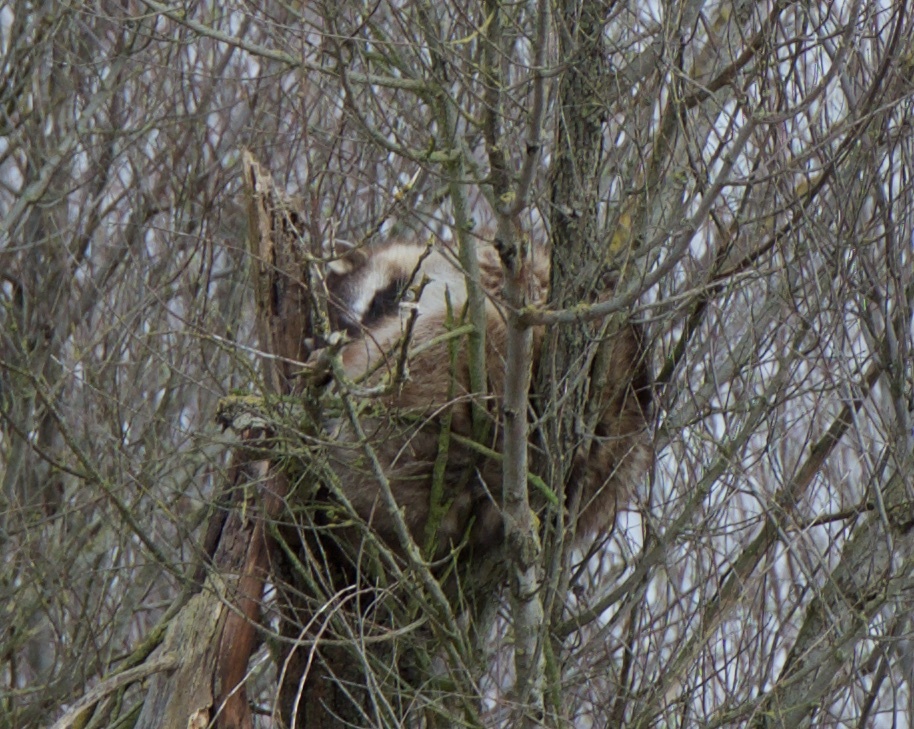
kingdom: Animalia
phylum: Chordata
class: Mammalia
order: Carnivora
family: Procyonidae
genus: Procyon
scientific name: Procyon lotor
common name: Raccoon
